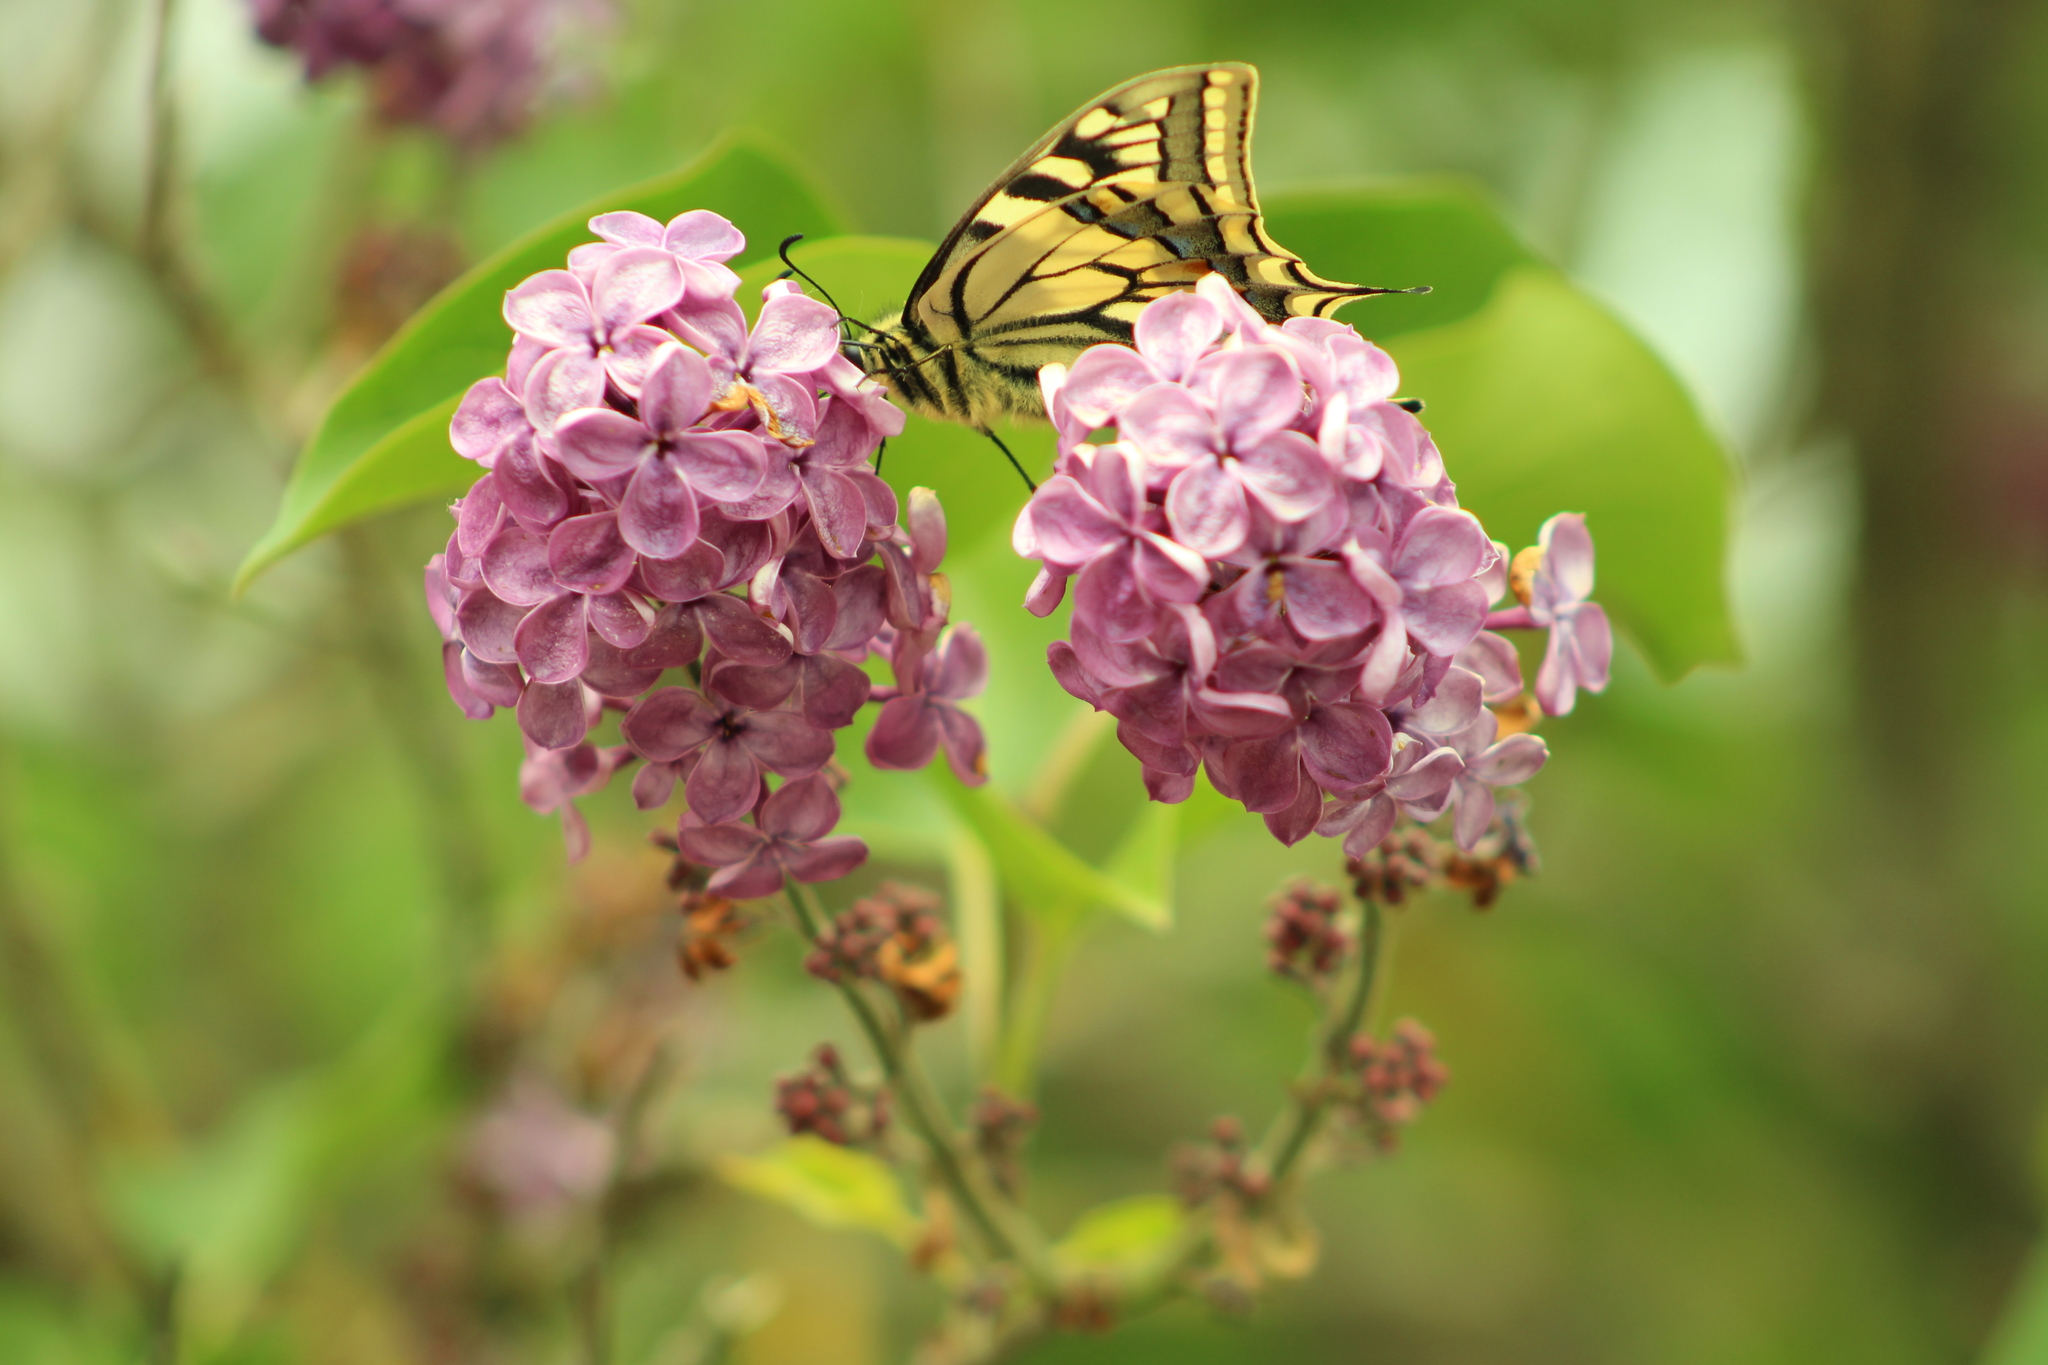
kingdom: Animalia
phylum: Arthropoda
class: Insecta
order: Lepidoptera
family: Papilionidae
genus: Papilio
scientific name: Papilio machaon
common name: Swallowtail
